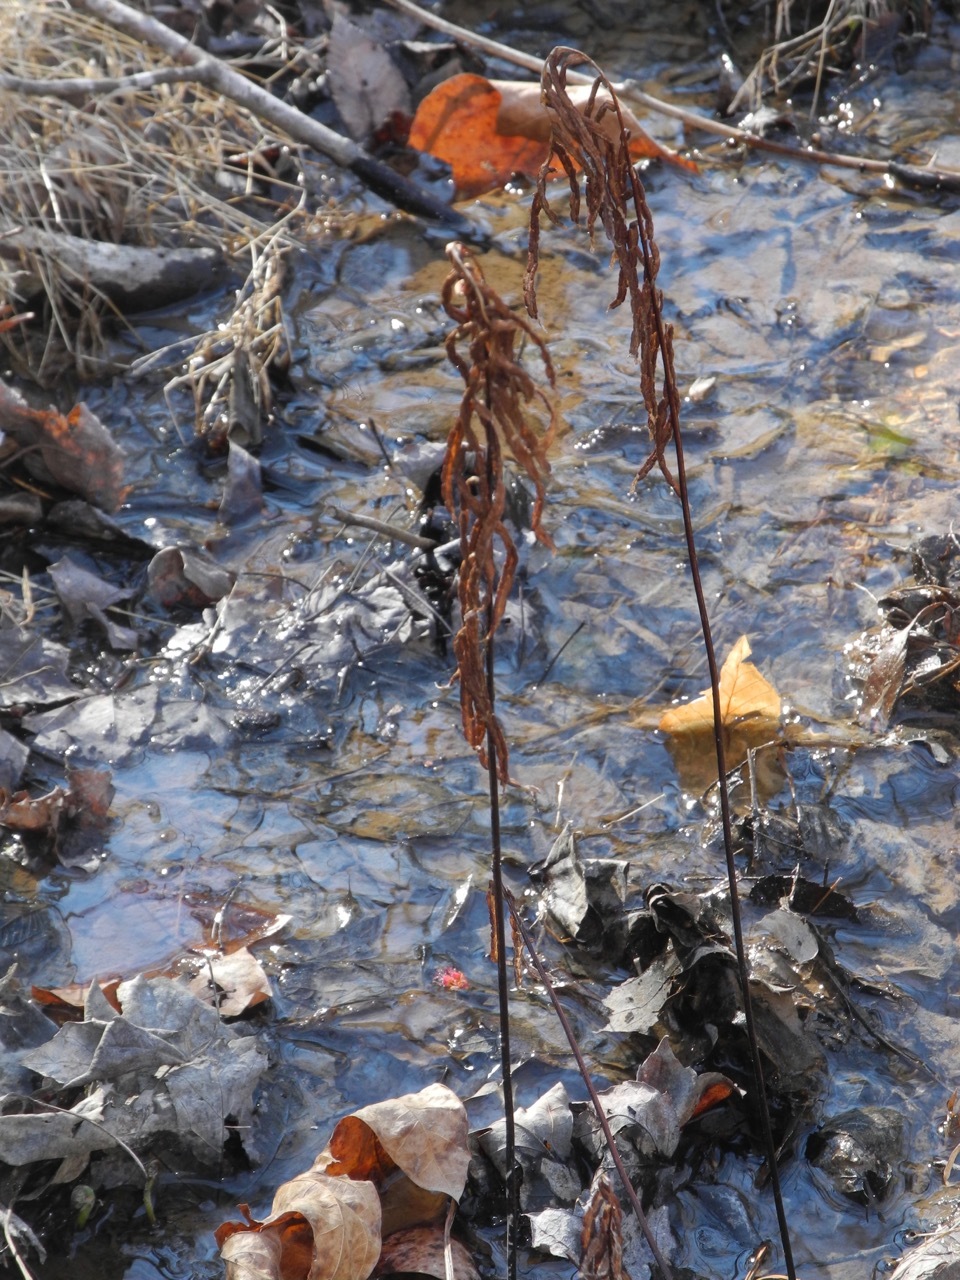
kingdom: Plantae
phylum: Tracheophyta
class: Polypodiopsida
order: Polypodiales
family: Blechnaceae
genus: Lorinseria
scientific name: Lorinseria areolata
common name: Dwarf chain fern
